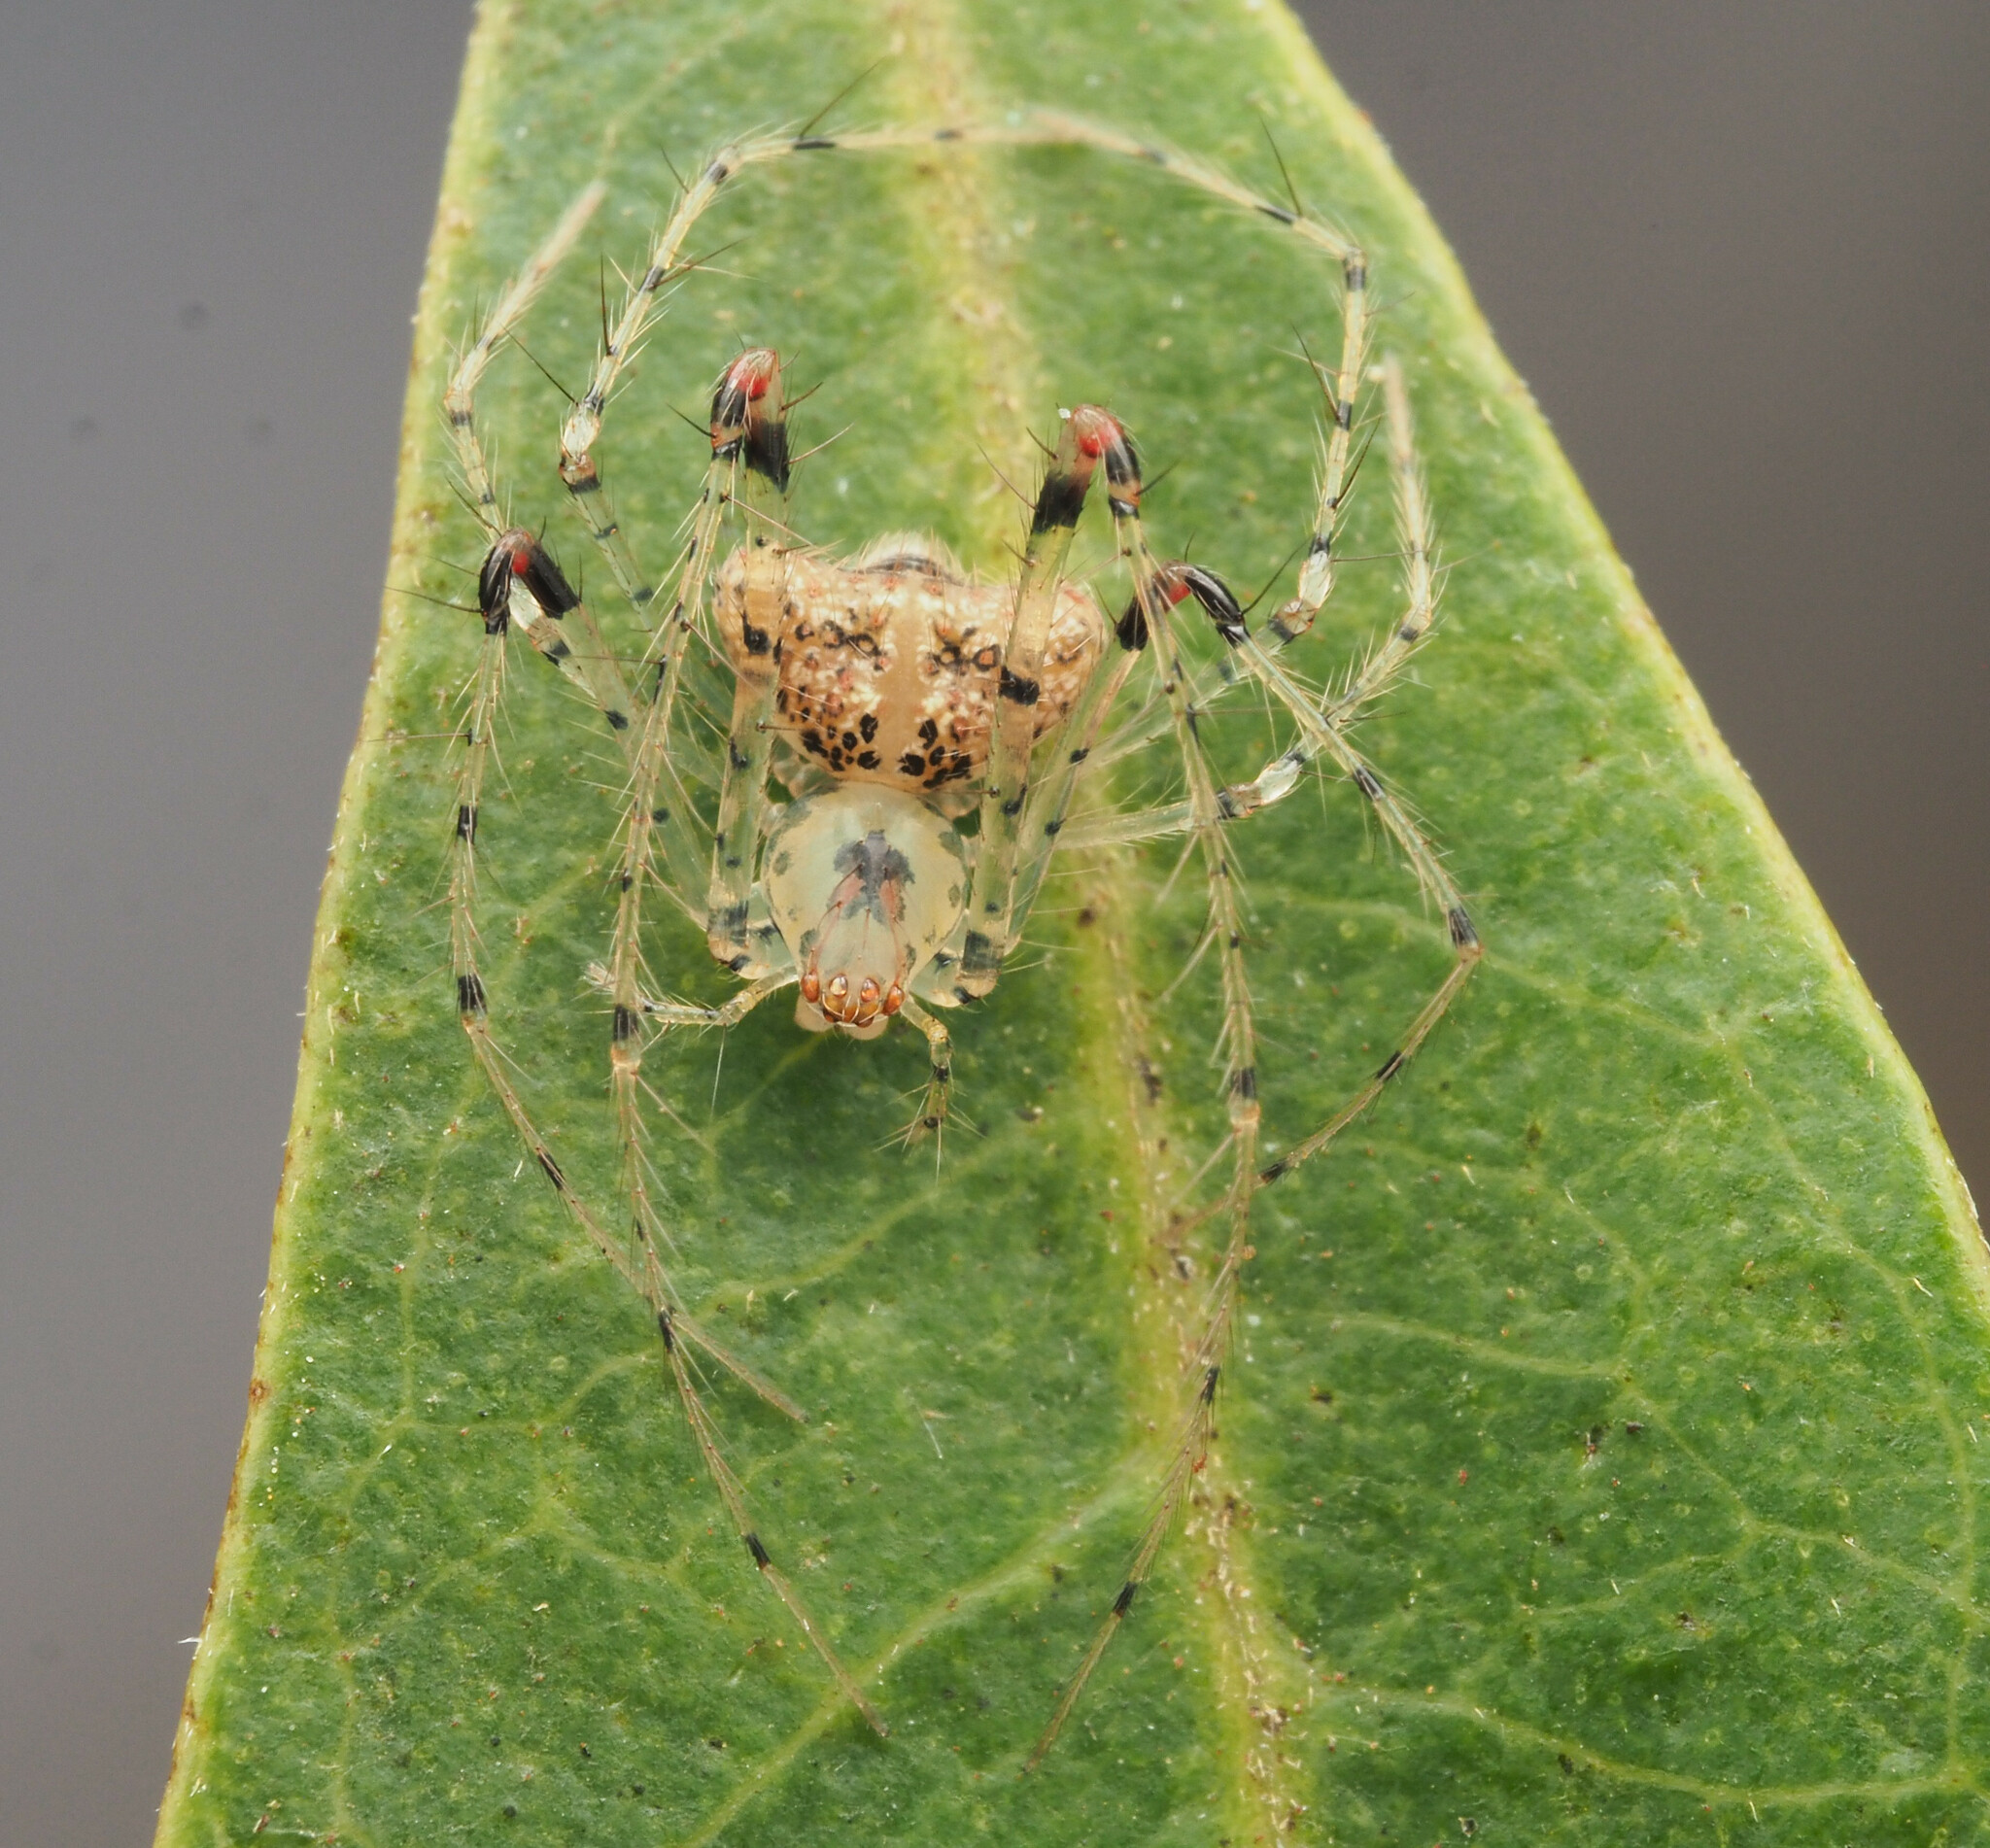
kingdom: Animalia
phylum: Arthropoda
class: Arachnida
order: Araneae
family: Mimetidae
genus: Australomimetus
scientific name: Australomimetus triangulosus
